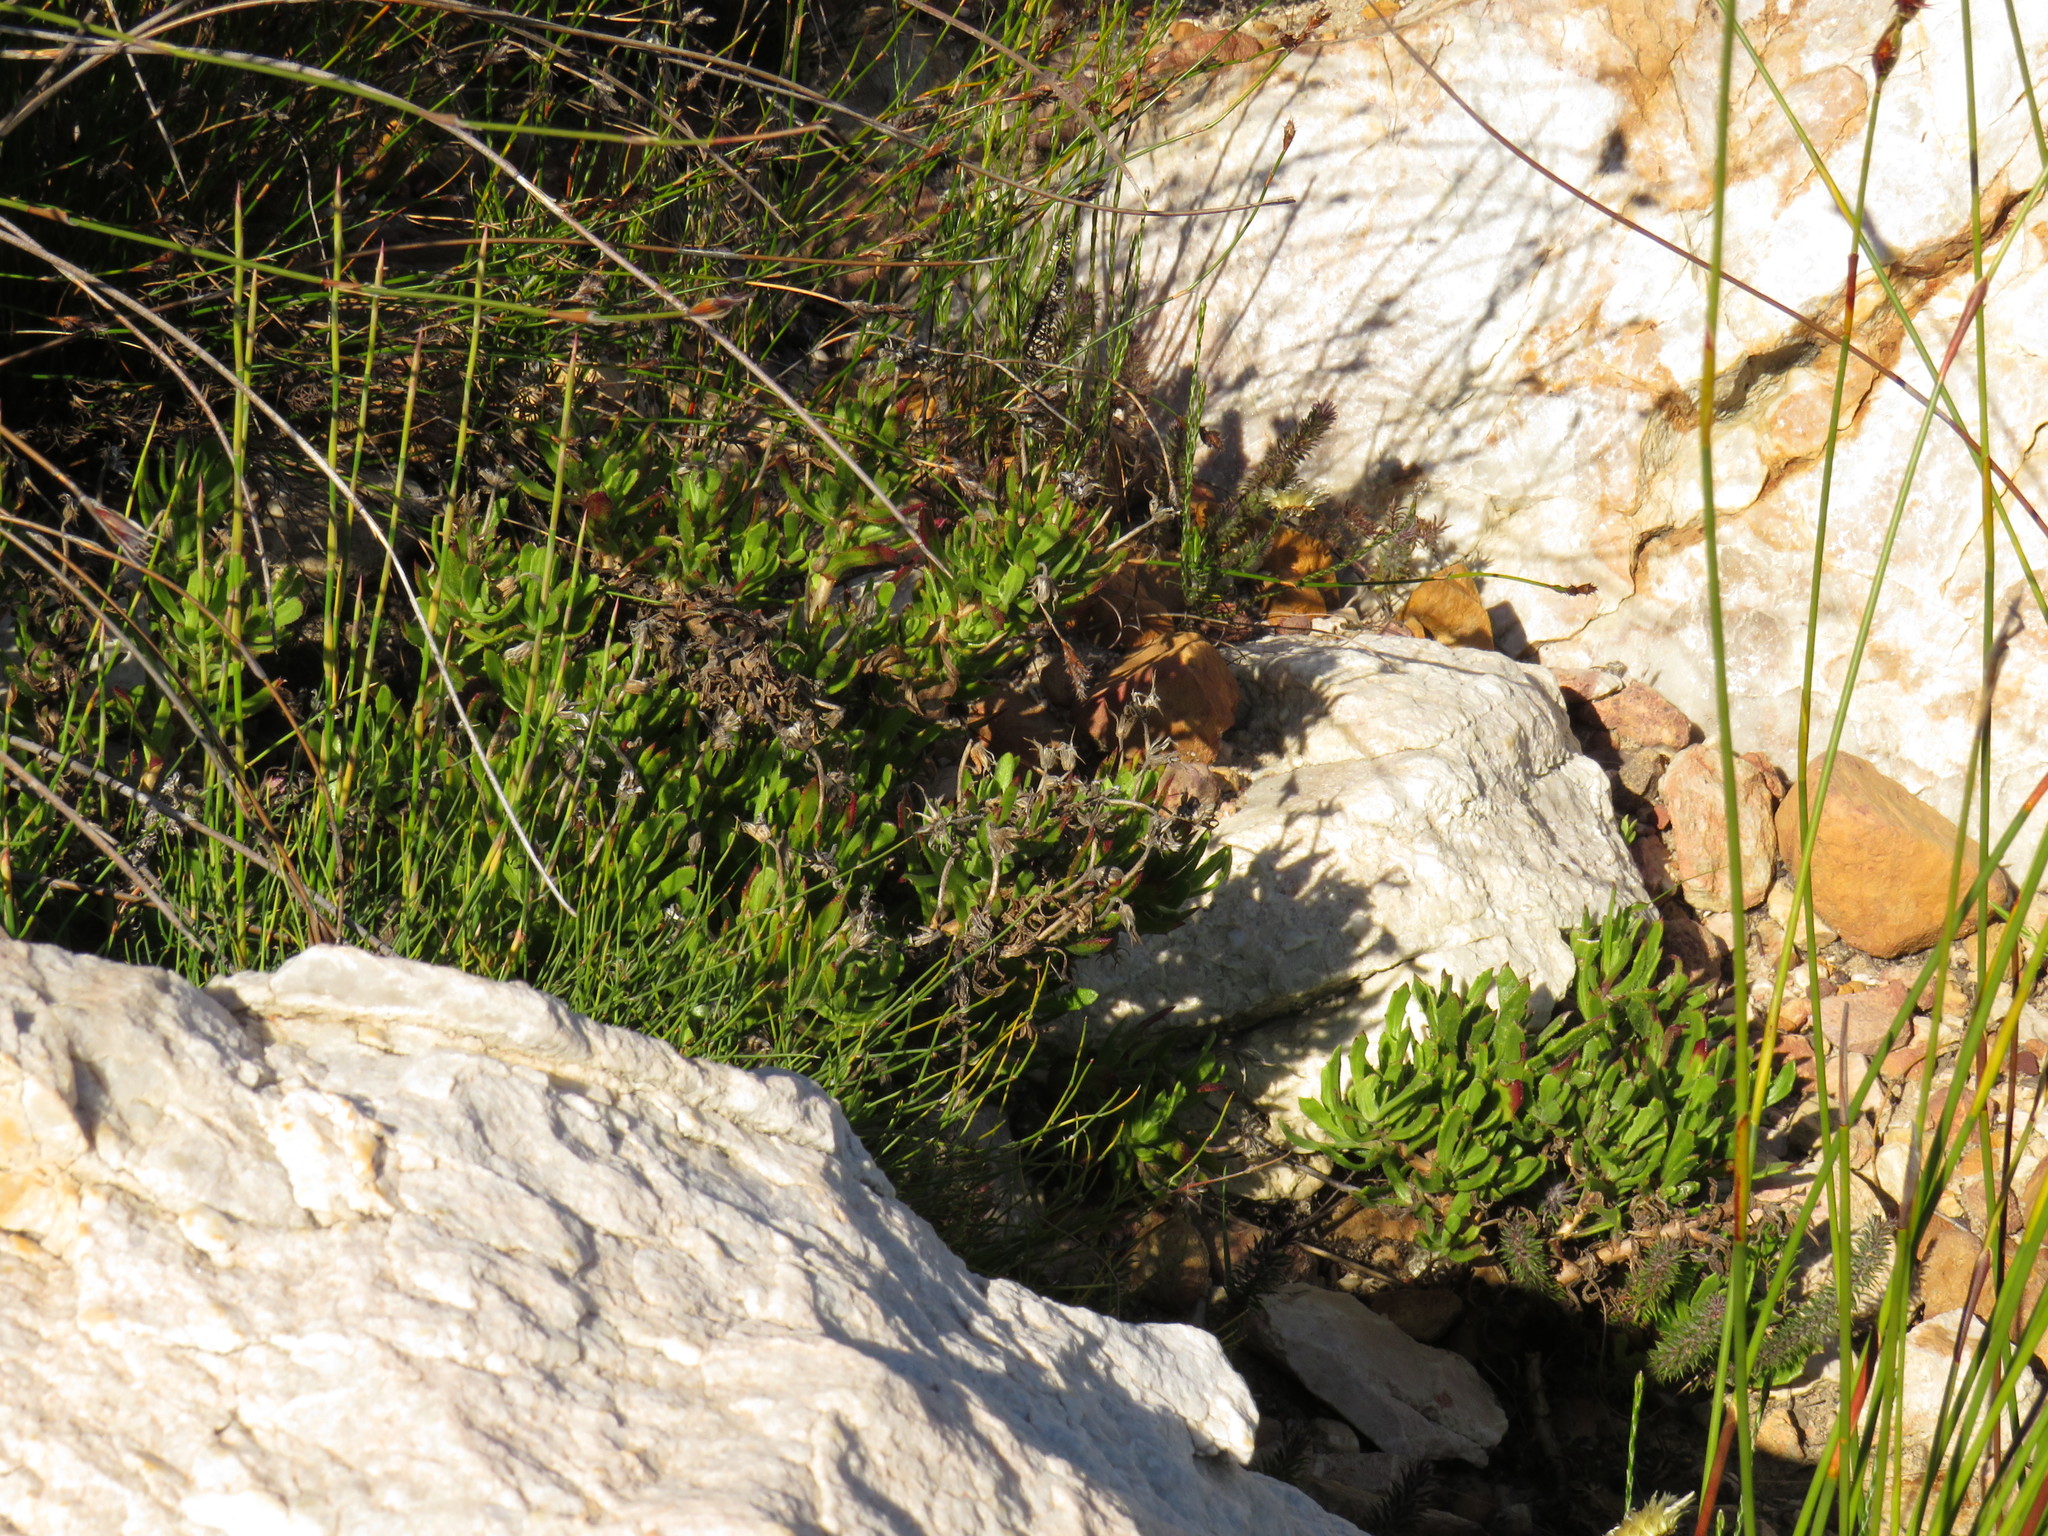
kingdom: Plantae
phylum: Tracheophyta
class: Magnoliopsida
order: Asterales
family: Asteraceae
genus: Dimorphotheca
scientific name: Dimorphotheca walliana
